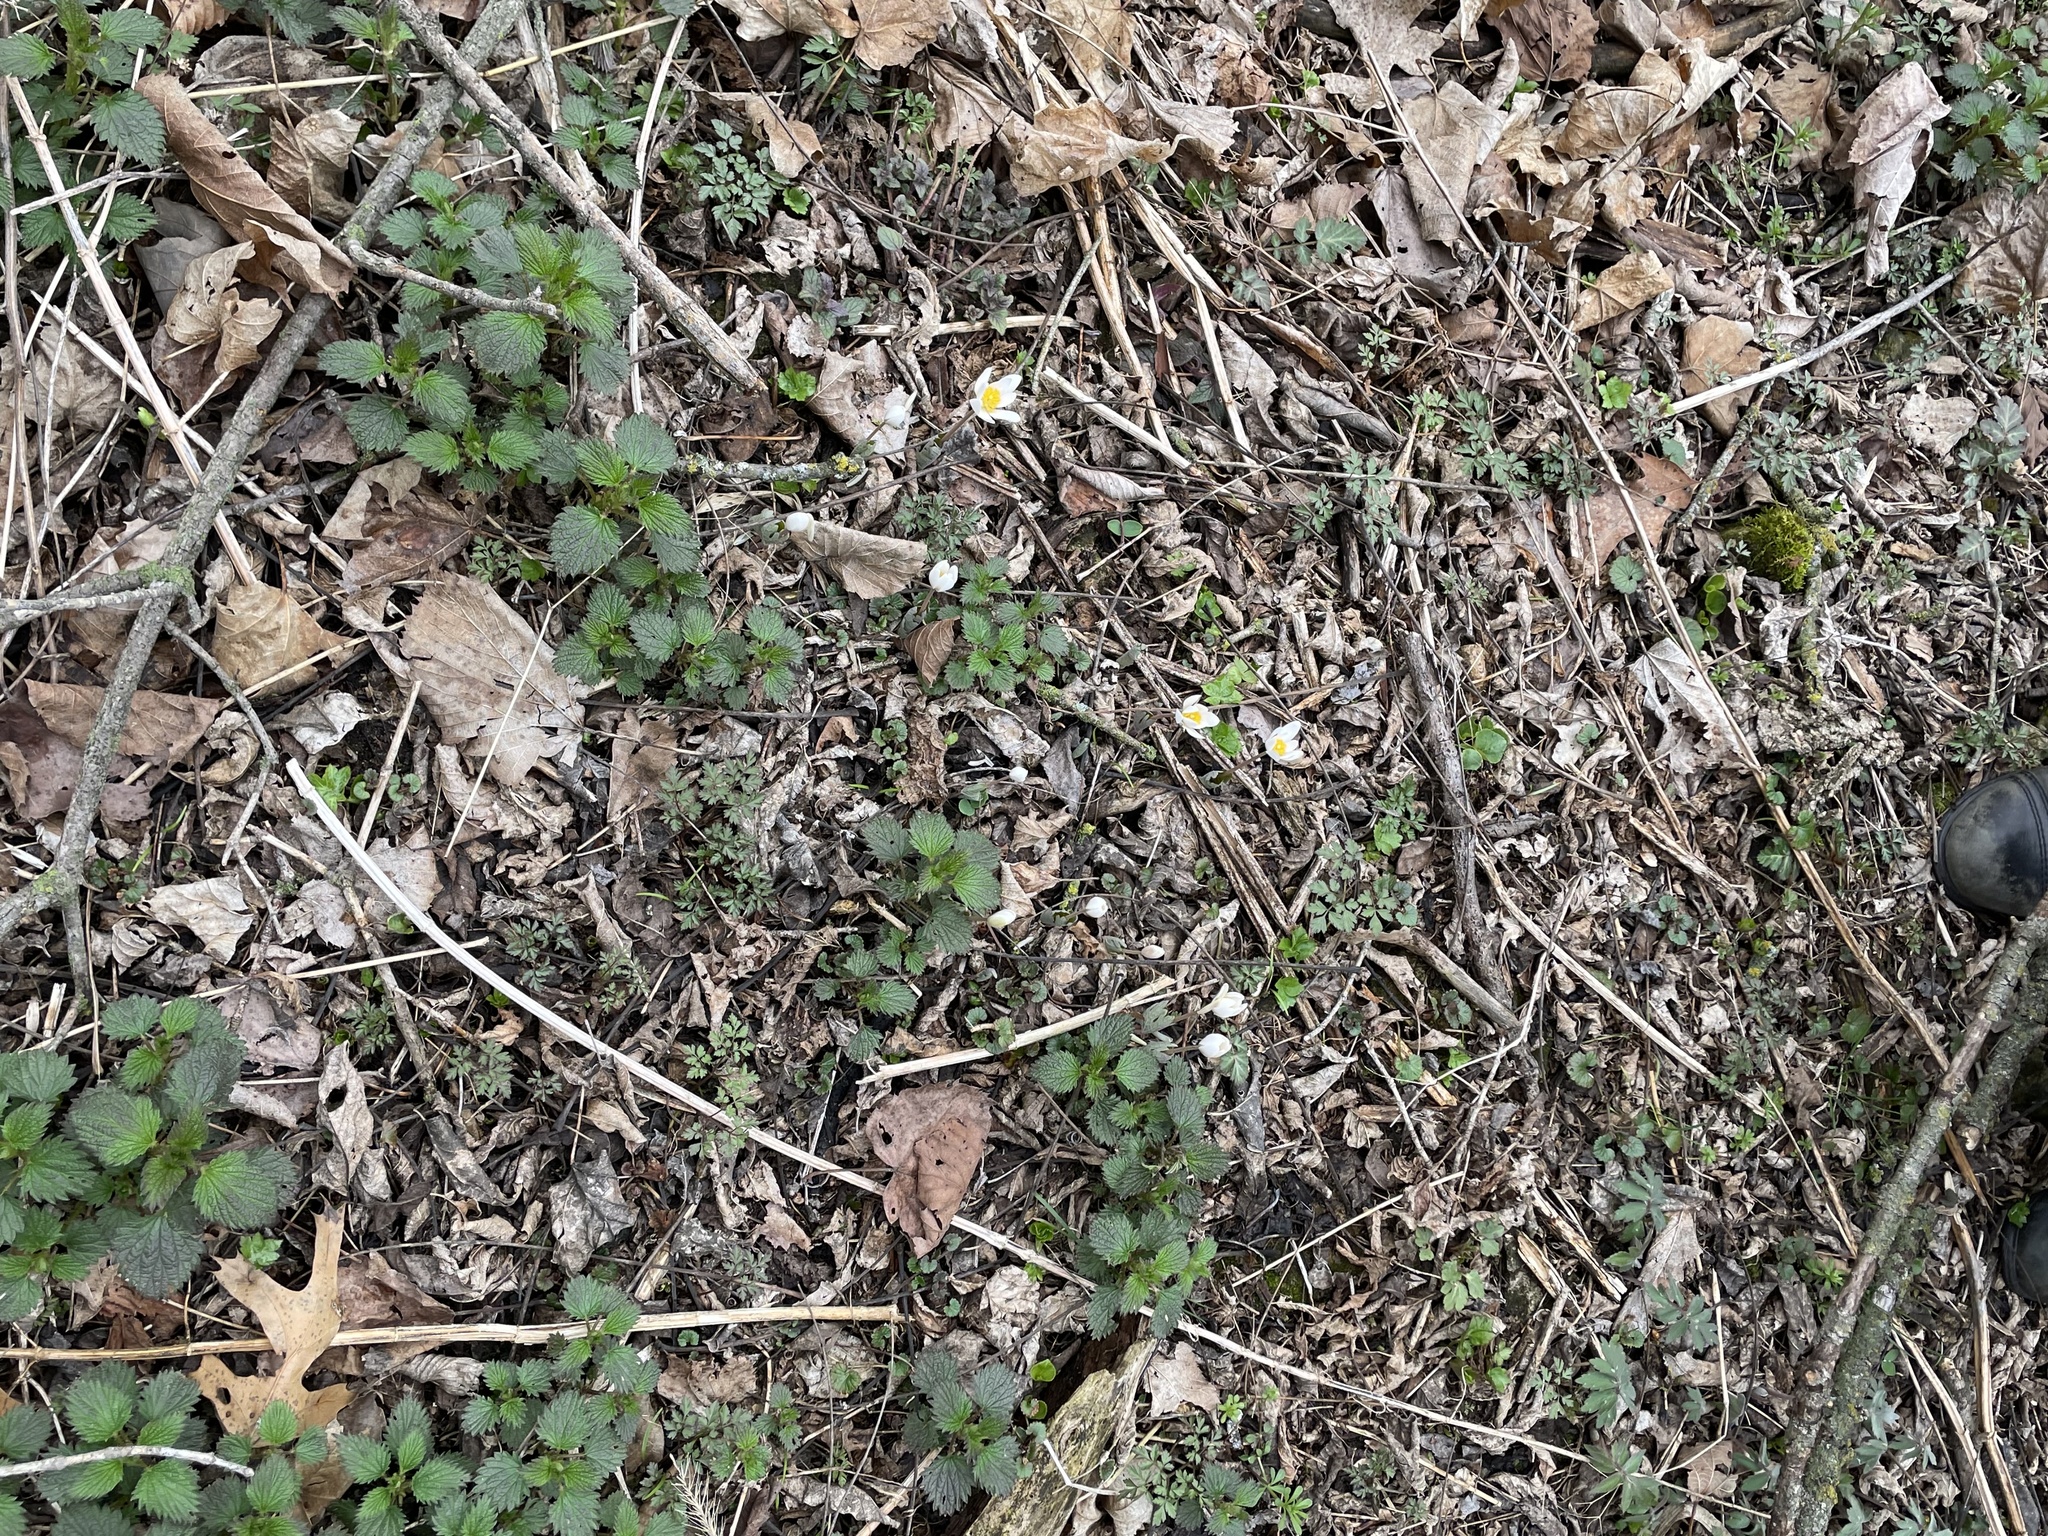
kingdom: Plantae
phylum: Tracheophyta
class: Magnoliopsida
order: Ranunculales
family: Papaveraceae
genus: Sanguinaria
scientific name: Sanguinaria canadensis
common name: Bloodroot
